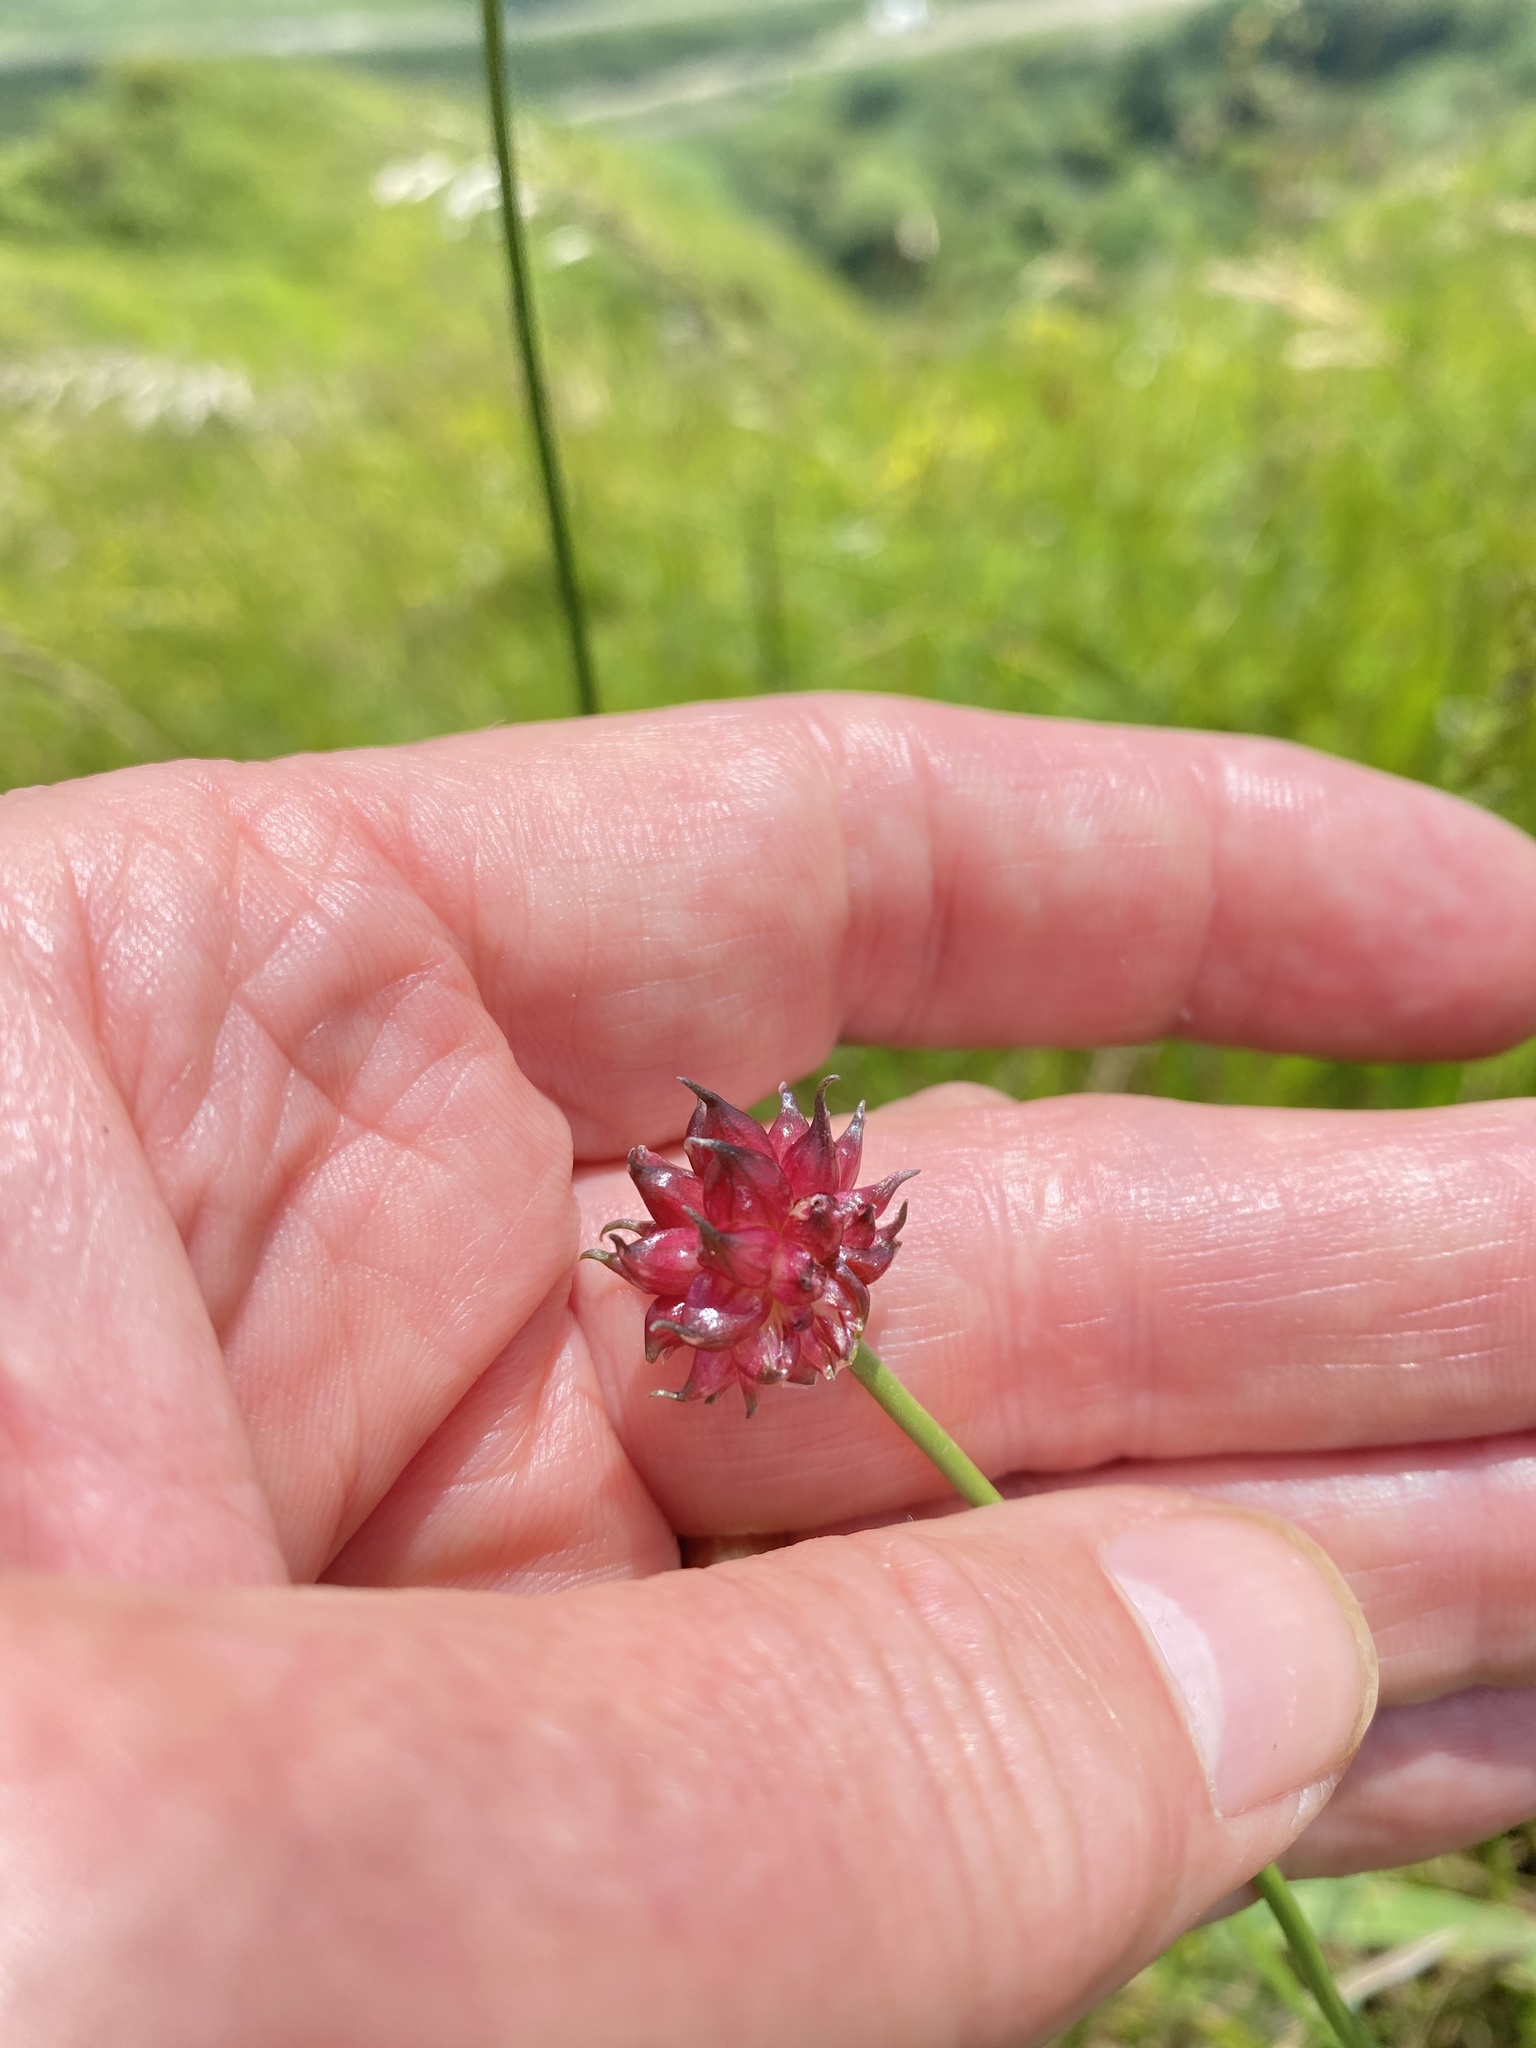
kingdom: Plantae
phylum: Tracheophyta
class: Liliopsida
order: Asparagales
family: Amaryllidaceae
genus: Allium
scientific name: Allium vineale
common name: Crow garlic
